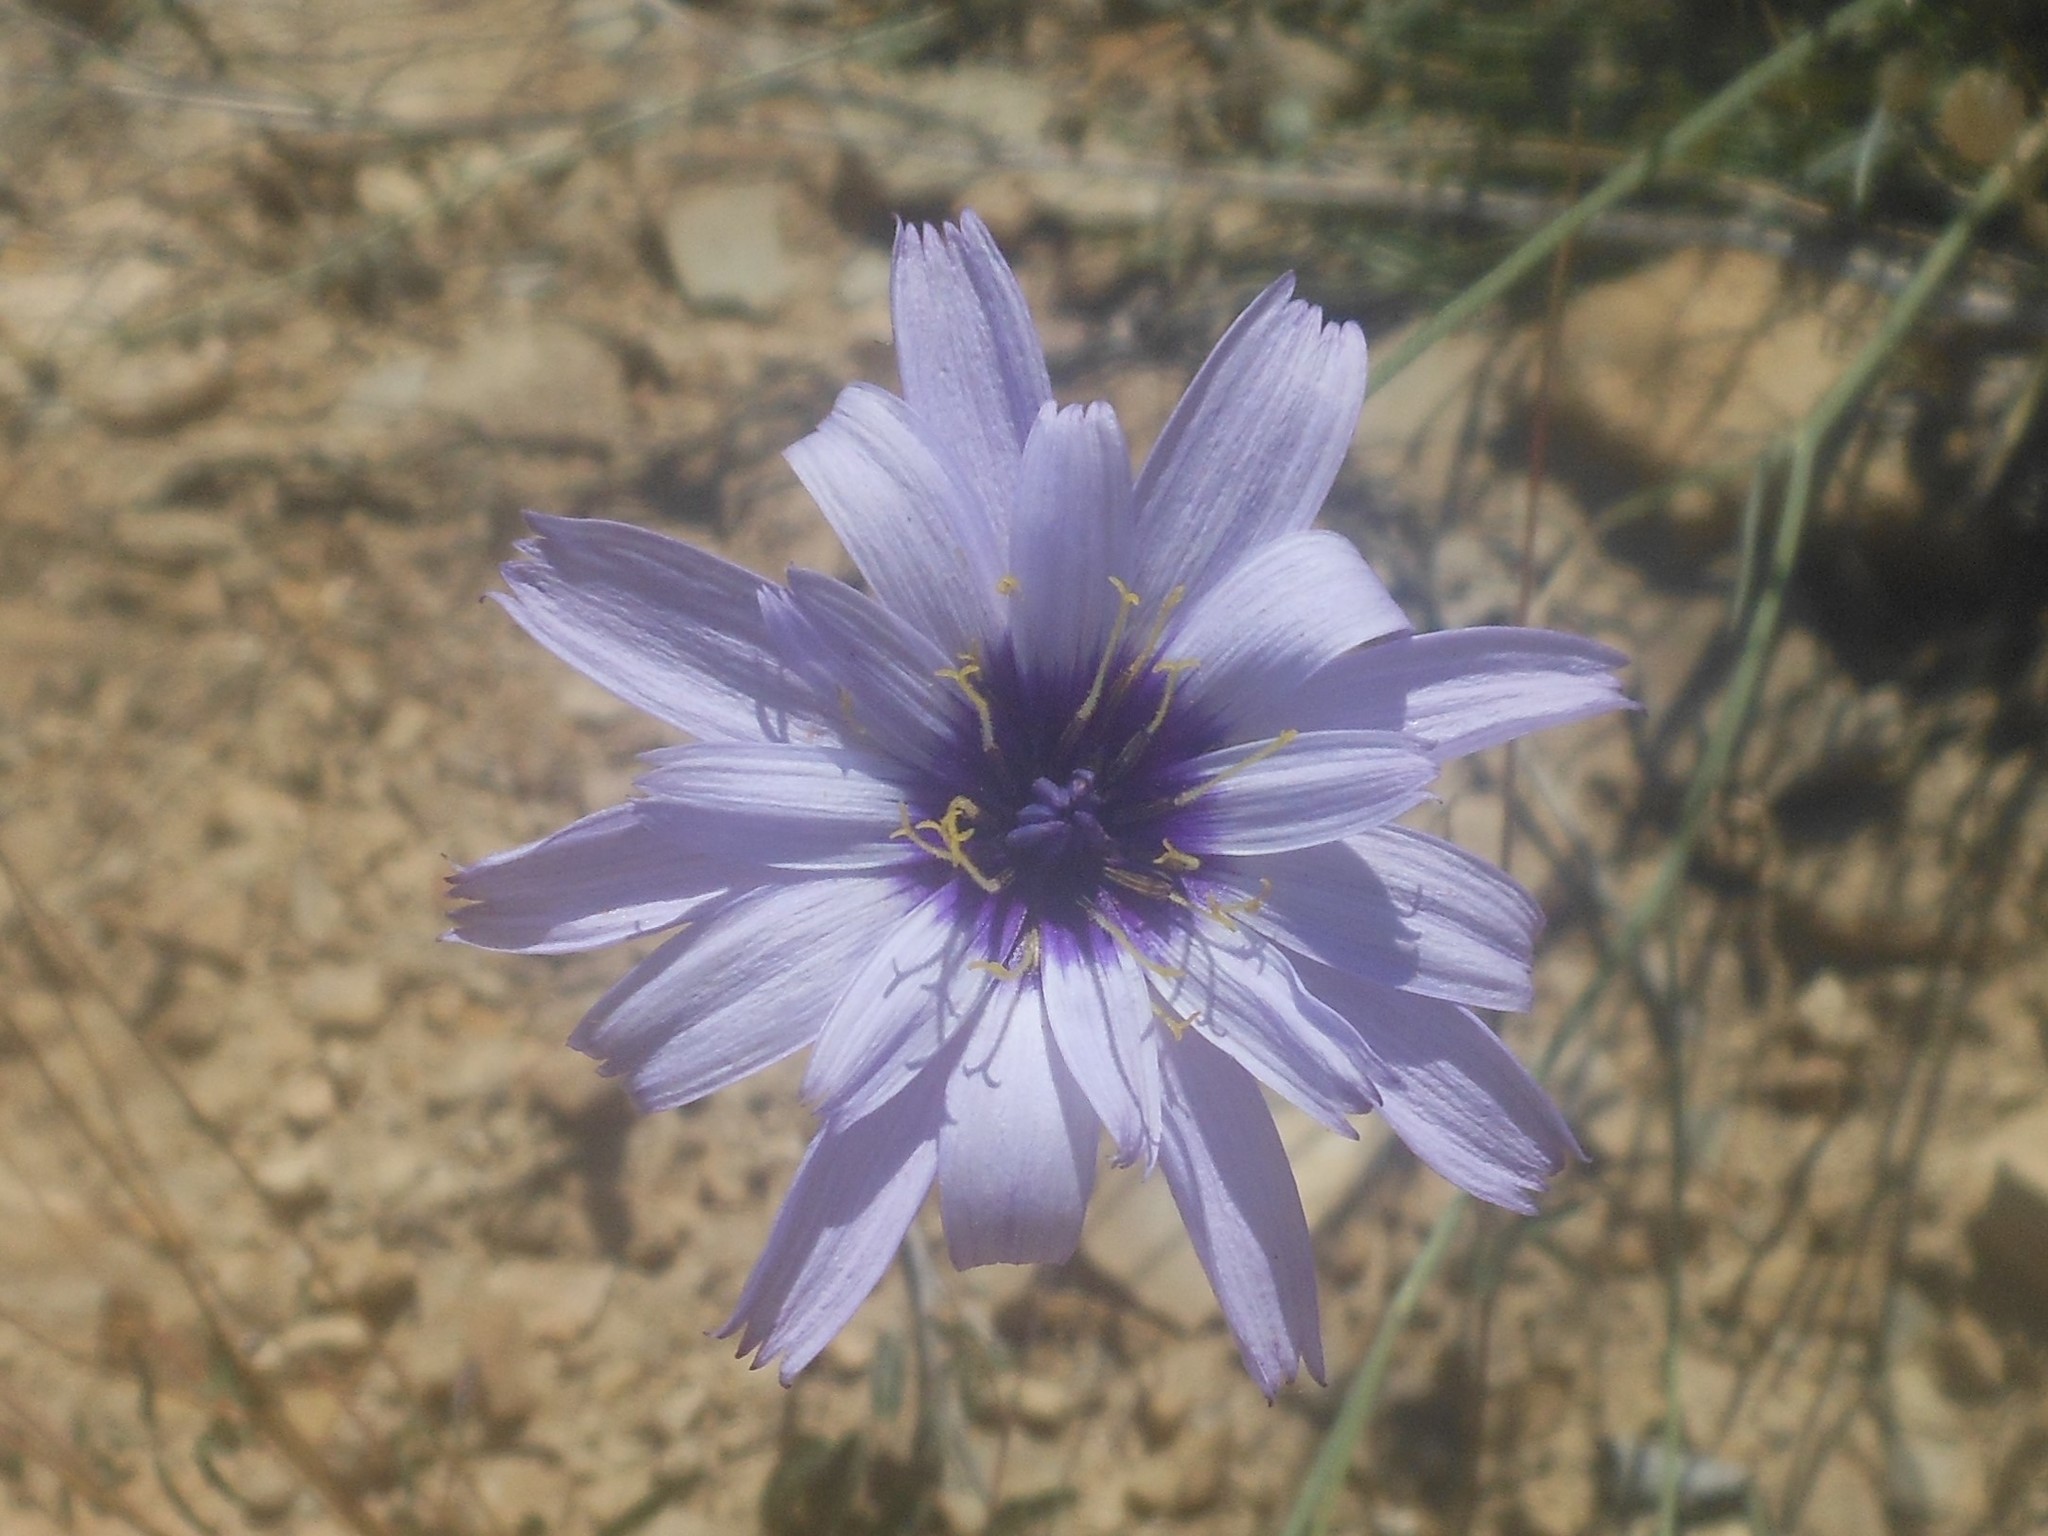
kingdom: Plantae
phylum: Tracheophyta
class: Magnoliopsida
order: Asterales
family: Asteraceae
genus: Catananche
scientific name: Catananche caerulea
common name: Blue cupidone
